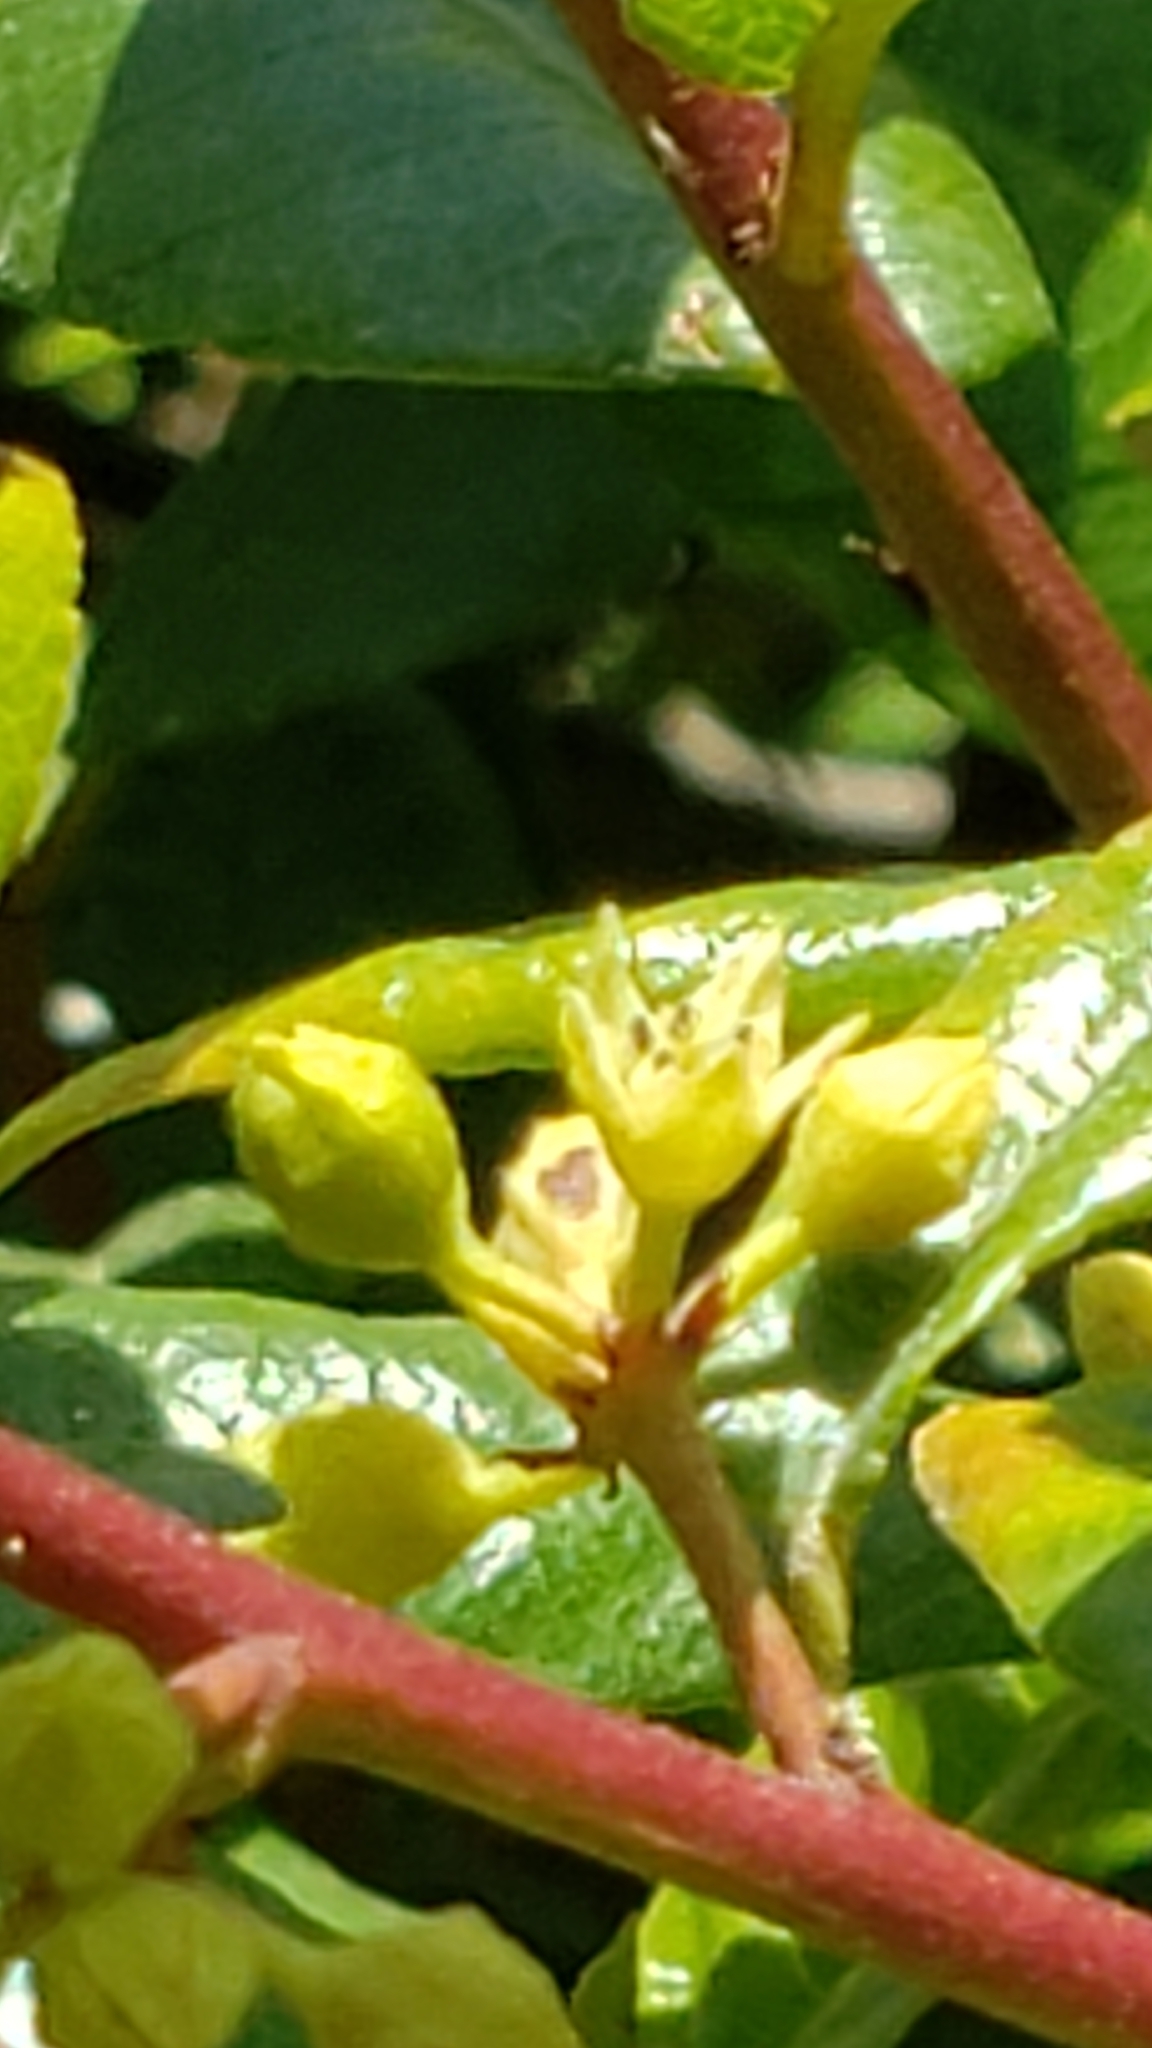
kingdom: Plantae
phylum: Tracheophyta
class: Magnoliopsida
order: Rosales
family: Rhamnaceae
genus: Frangula
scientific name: Frangula californica
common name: California buckthorn
